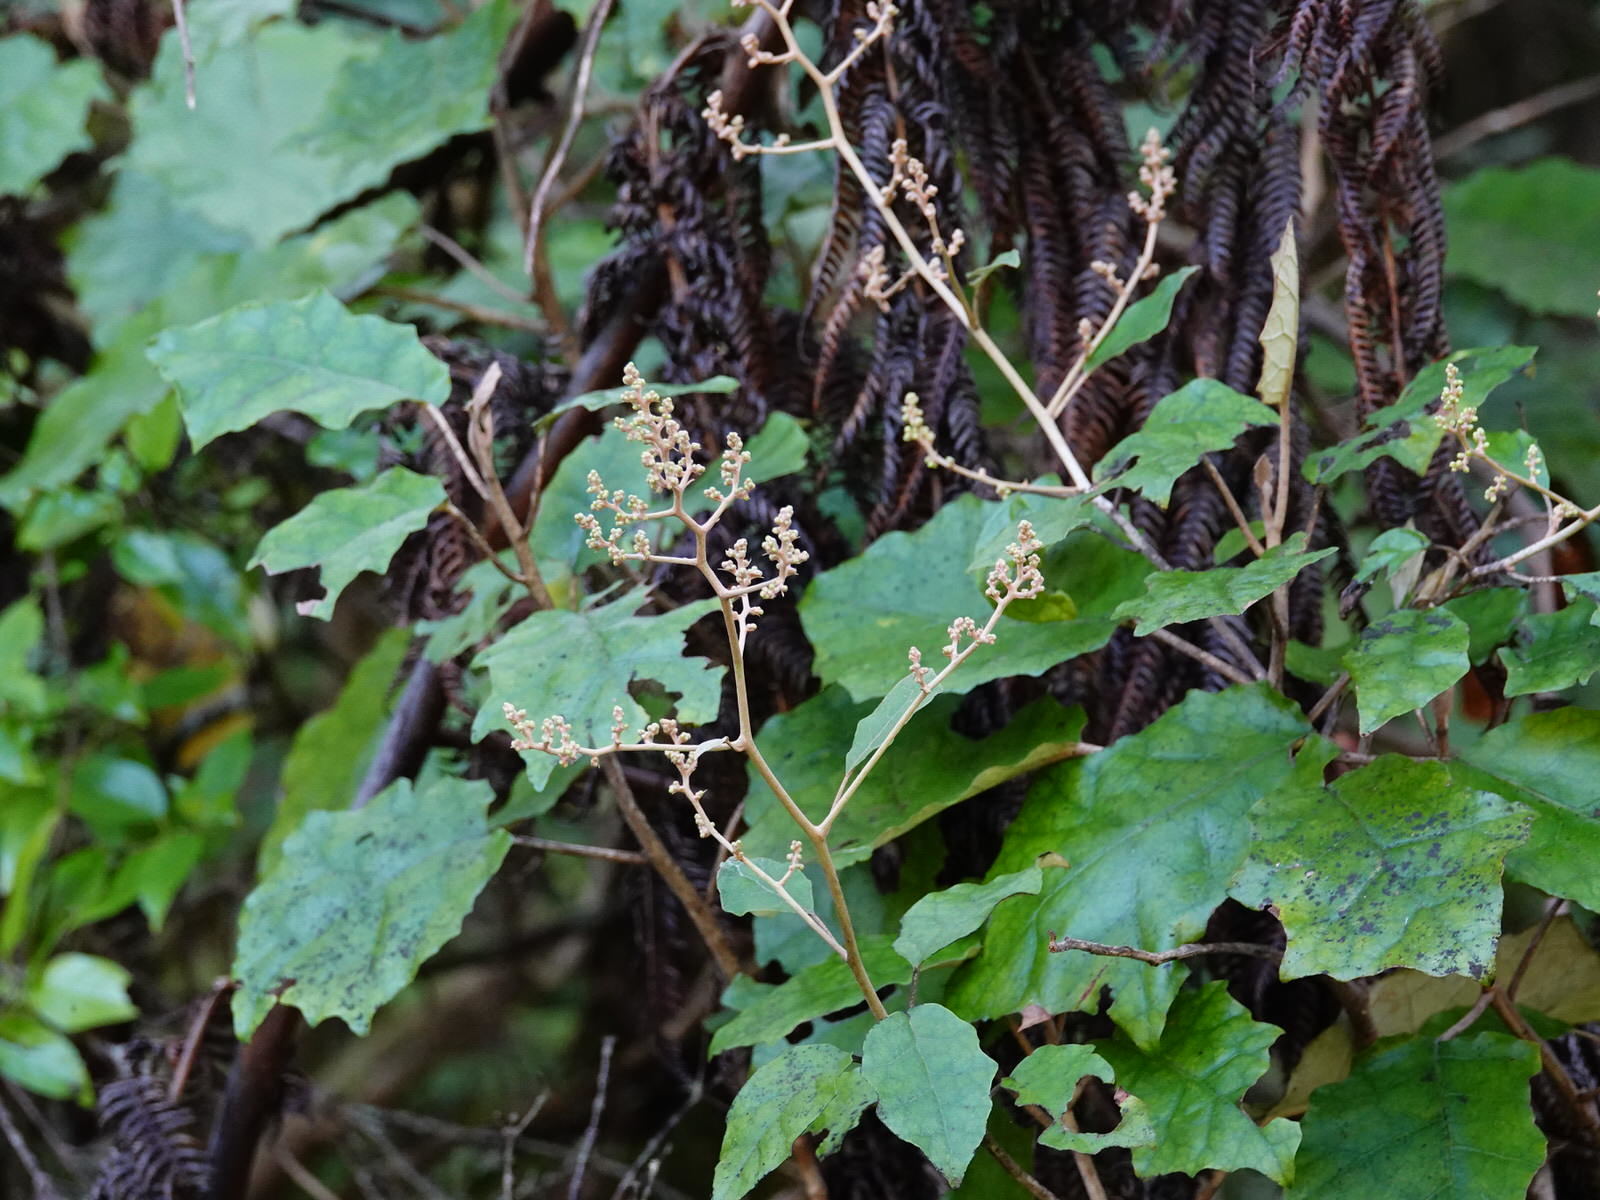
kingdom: Plantae
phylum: Tracheophyta
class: Magnoliopsida
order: Asterales
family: Asteraceae
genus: Brachyglottis
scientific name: Brachyglottis repanda
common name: Hedge ragwort
